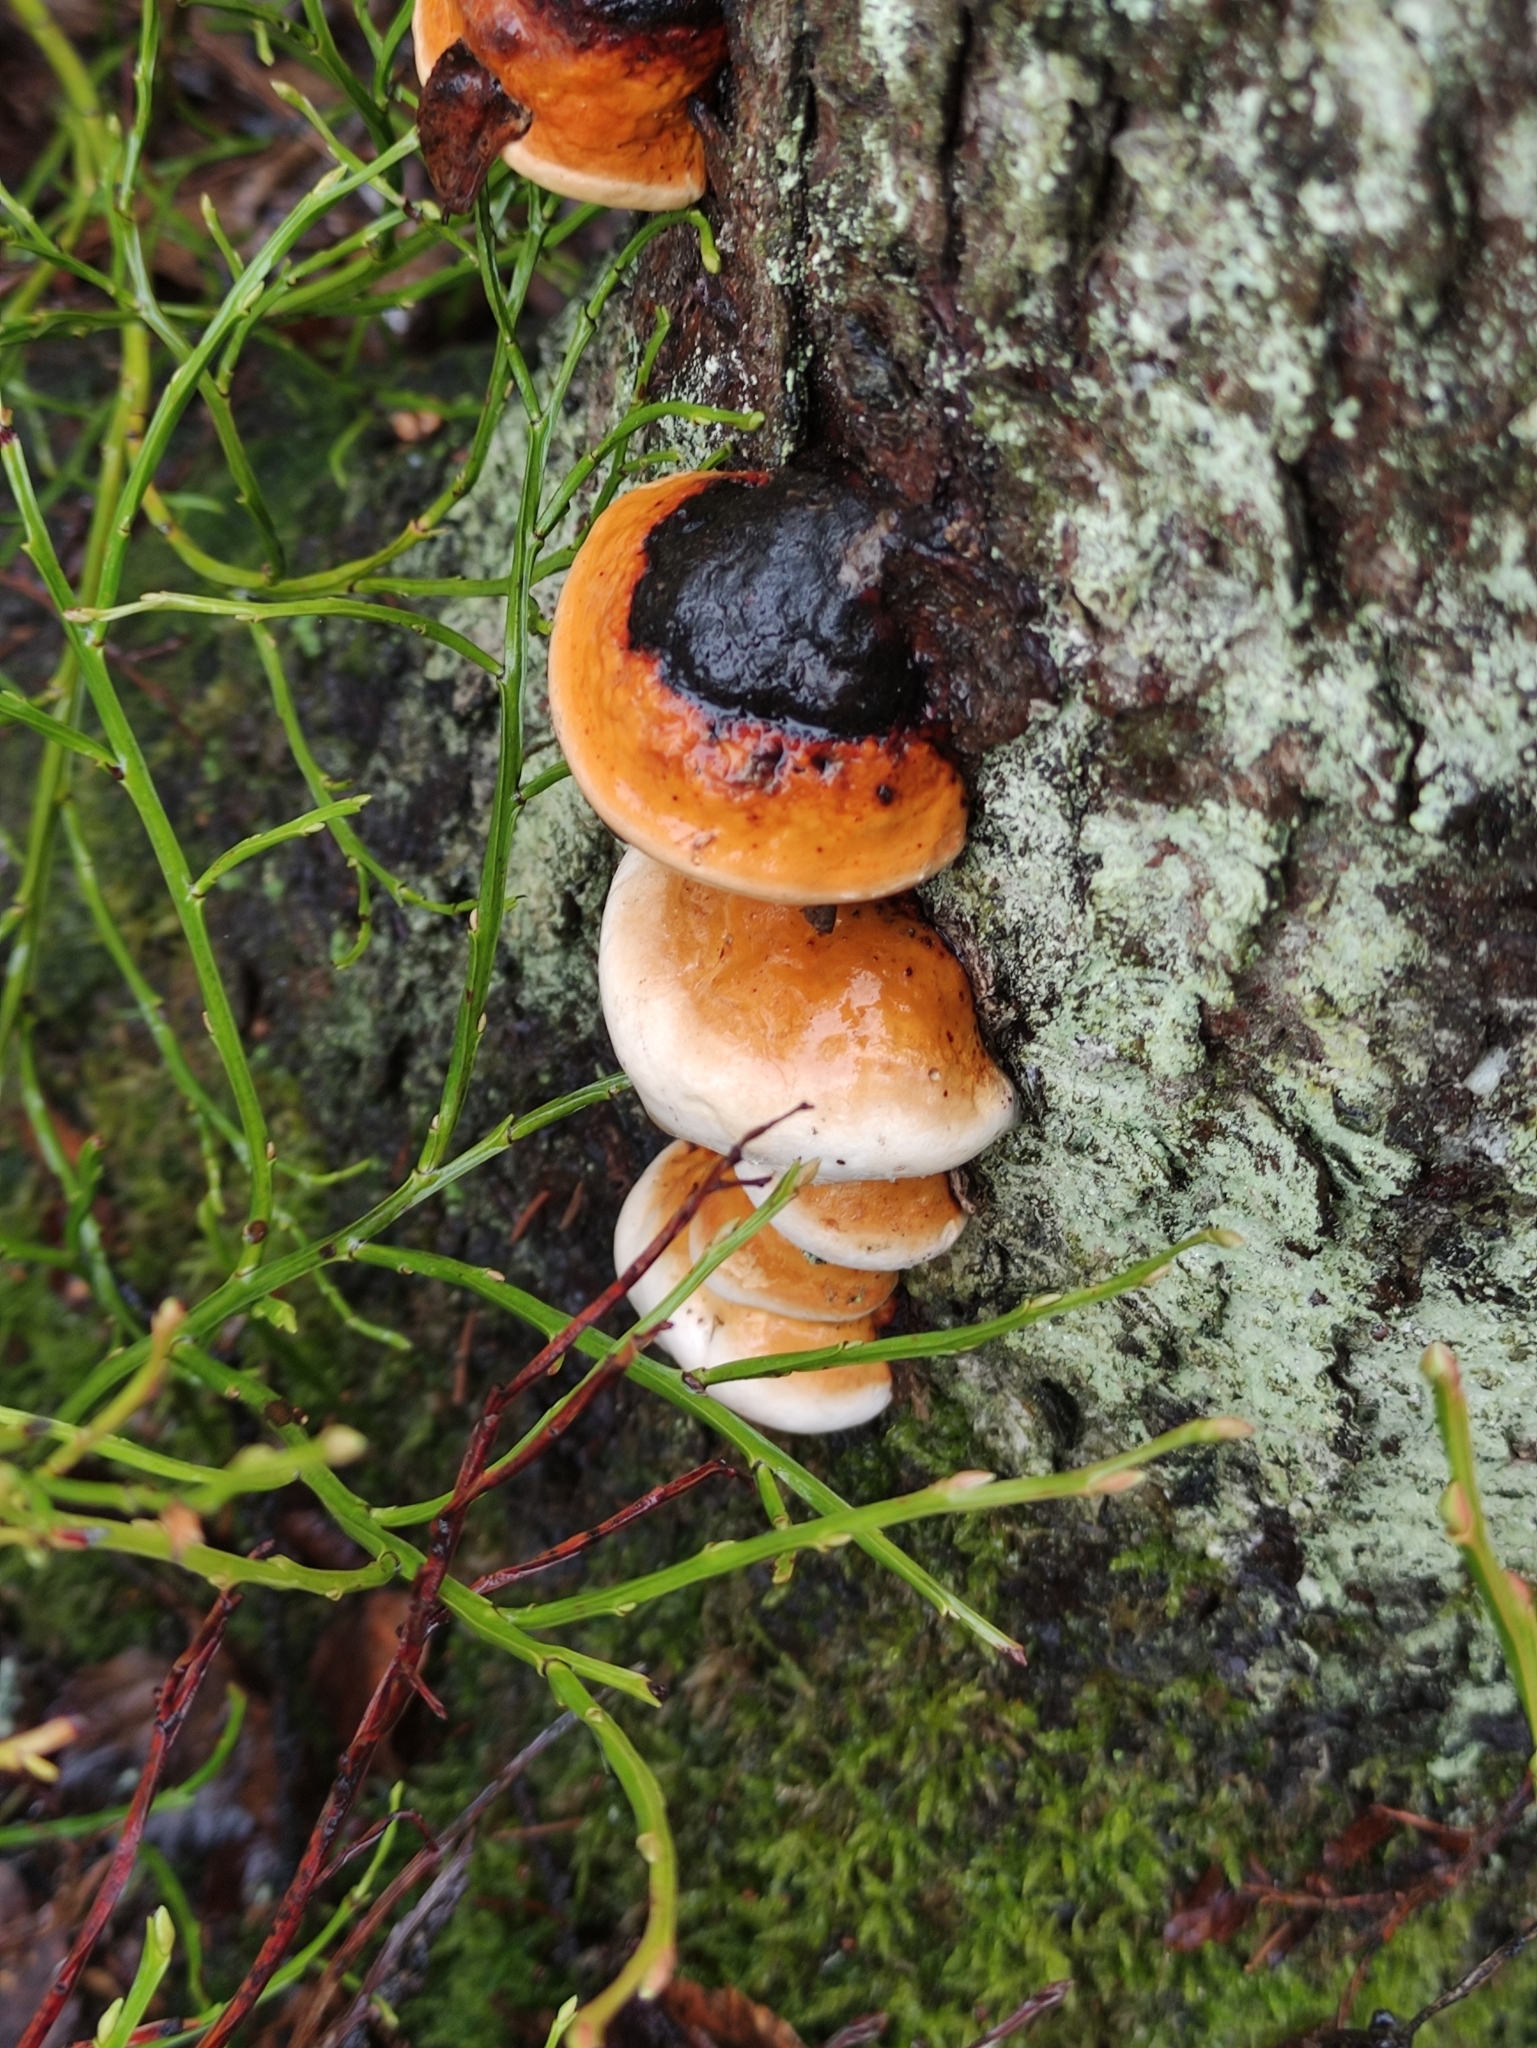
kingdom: Fungi
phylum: Basidiomycota
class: Agaricomycetes
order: Polyporales
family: Fomitopsidaceae
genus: Fomitopsis
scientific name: Fomitopsis pinicola
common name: Red-belted bracket
